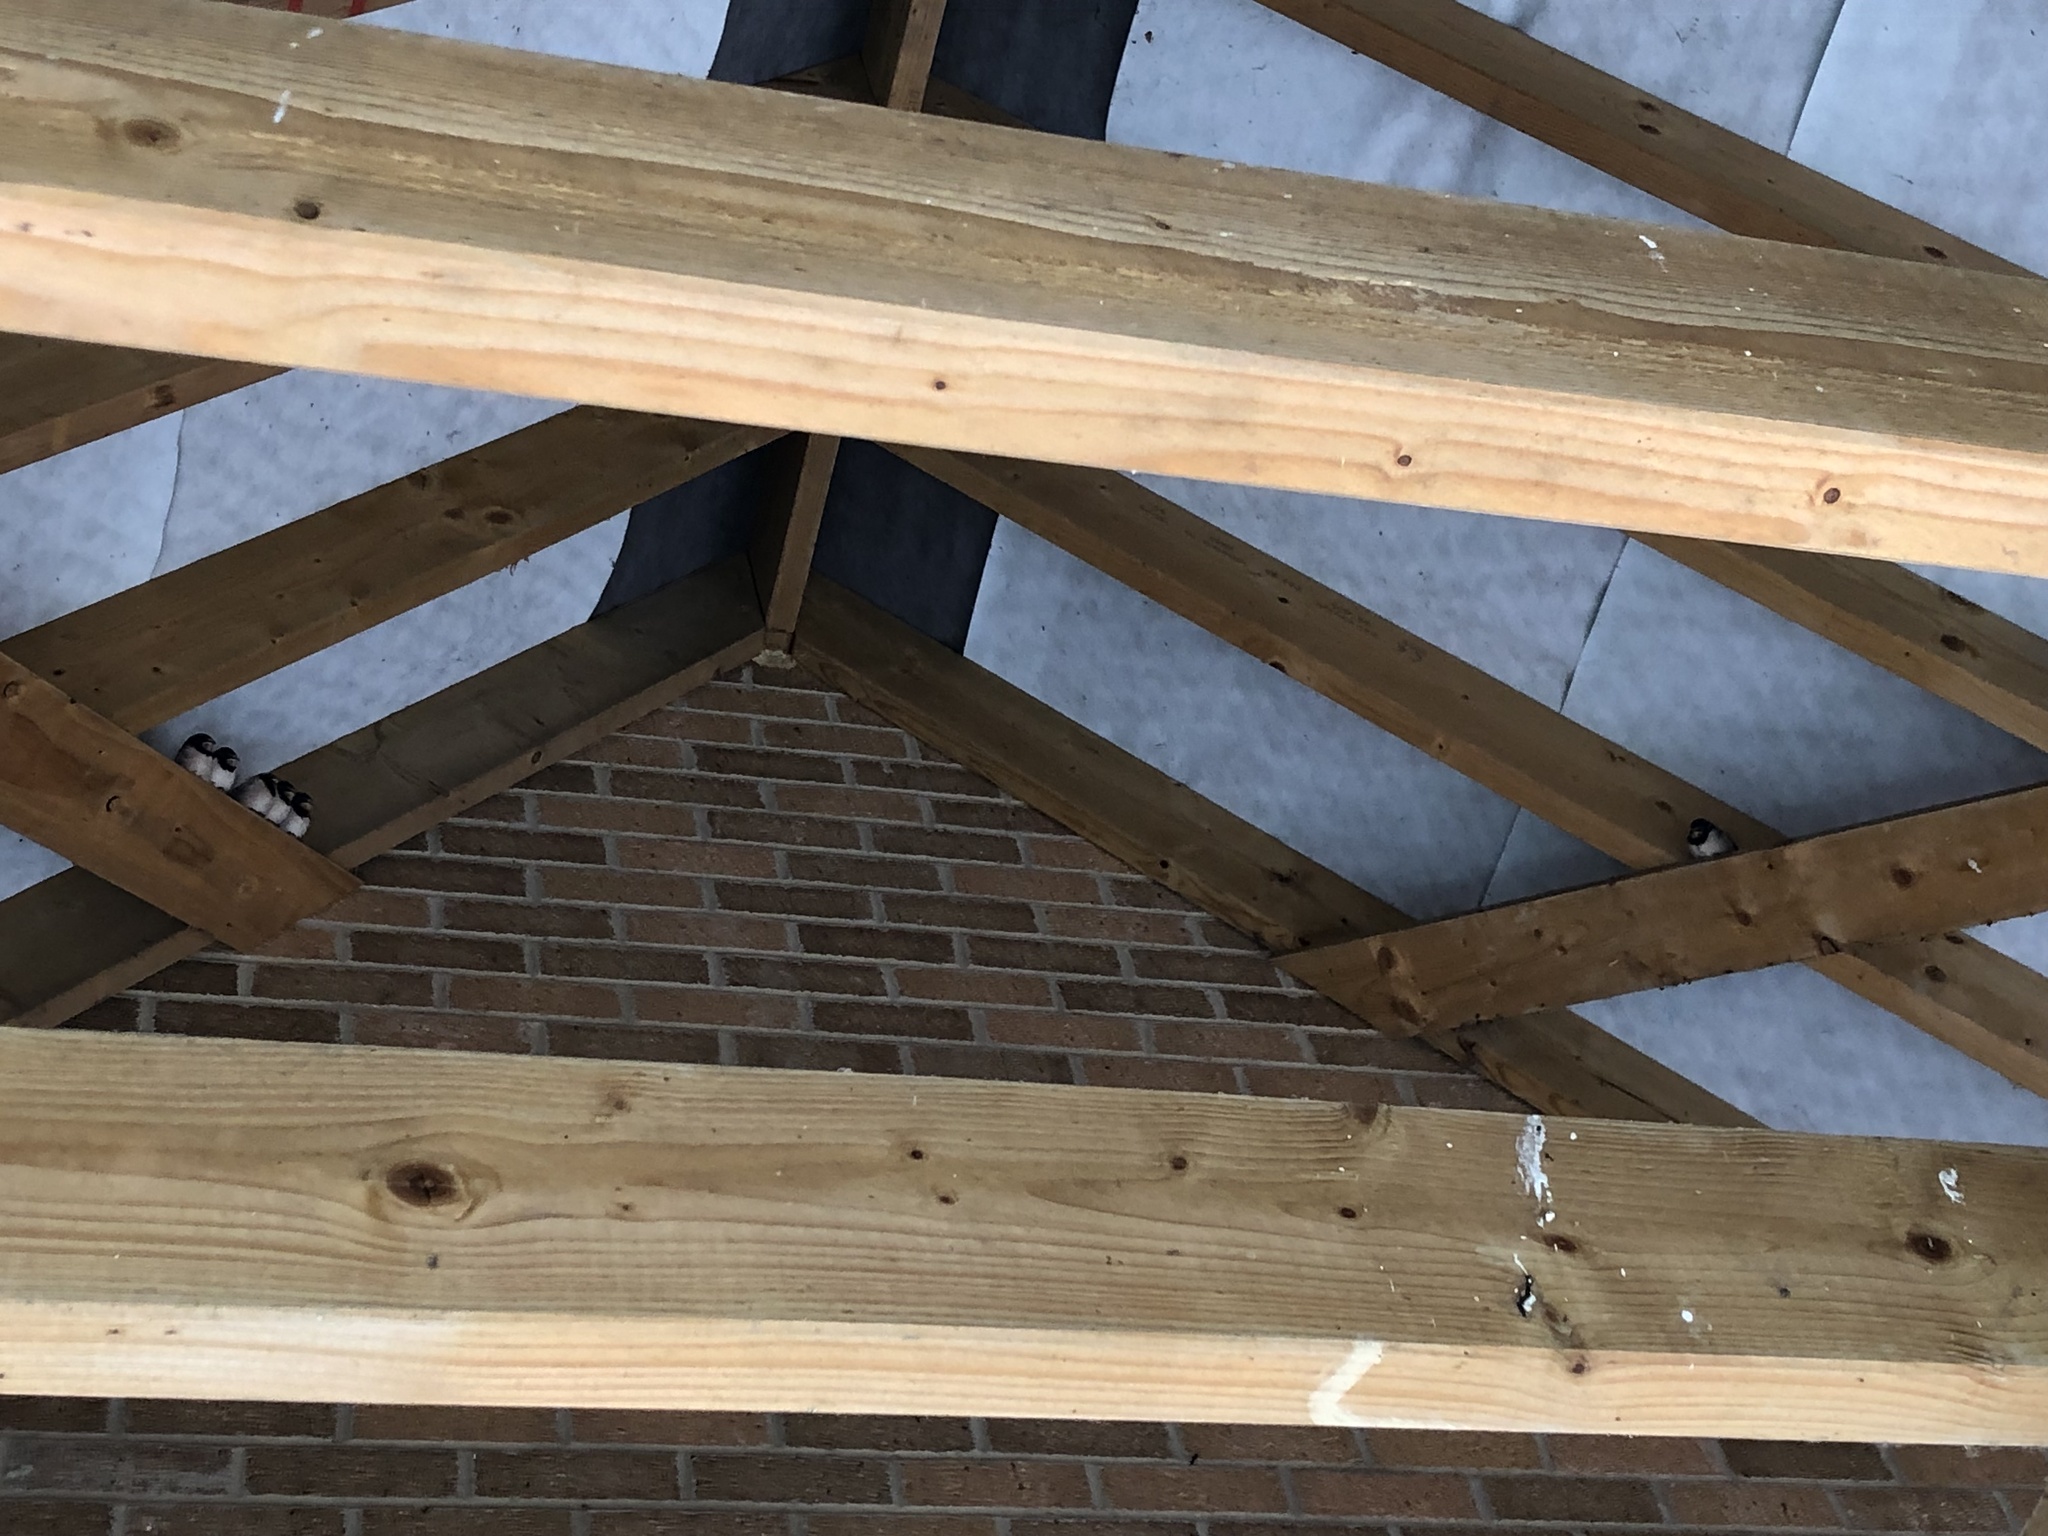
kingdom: Animalia
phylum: Chordata
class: Aves
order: Passeriformes
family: Hirundinidae
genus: Hirundo
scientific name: Hirundo rustica
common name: Barn swallow
